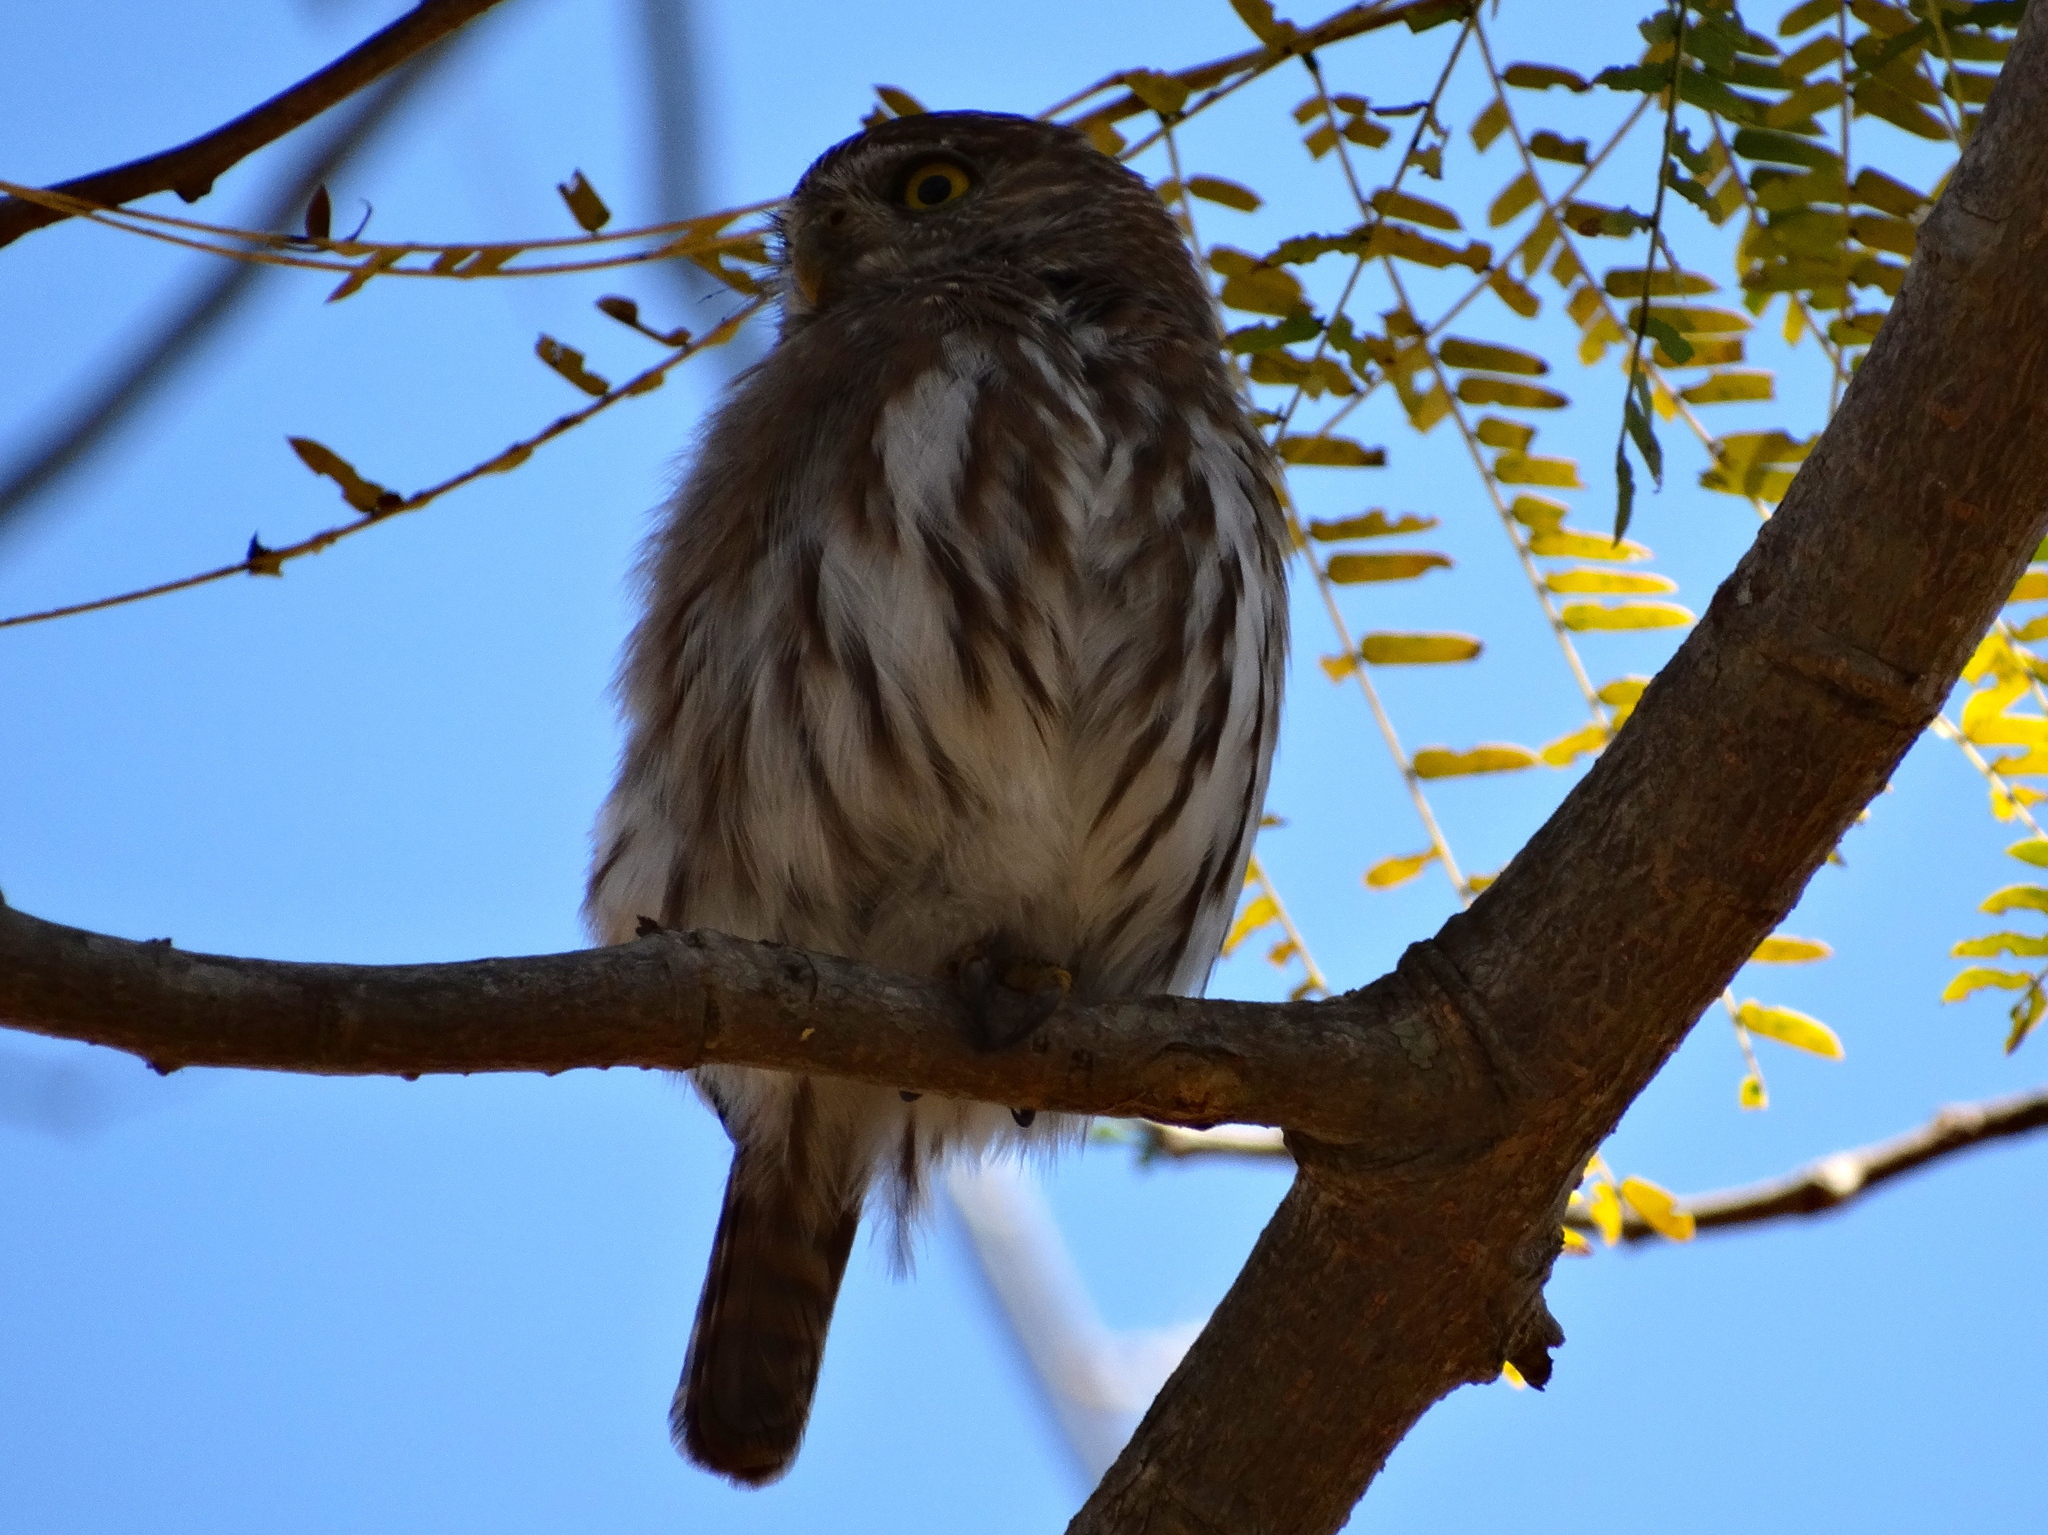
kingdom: Animalia
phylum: Chordata
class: Aves
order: Strigiformes
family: Strigidae
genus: Glaucidium
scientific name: Glaucidium brasilianum
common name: Ferruginous pygmy-owl
